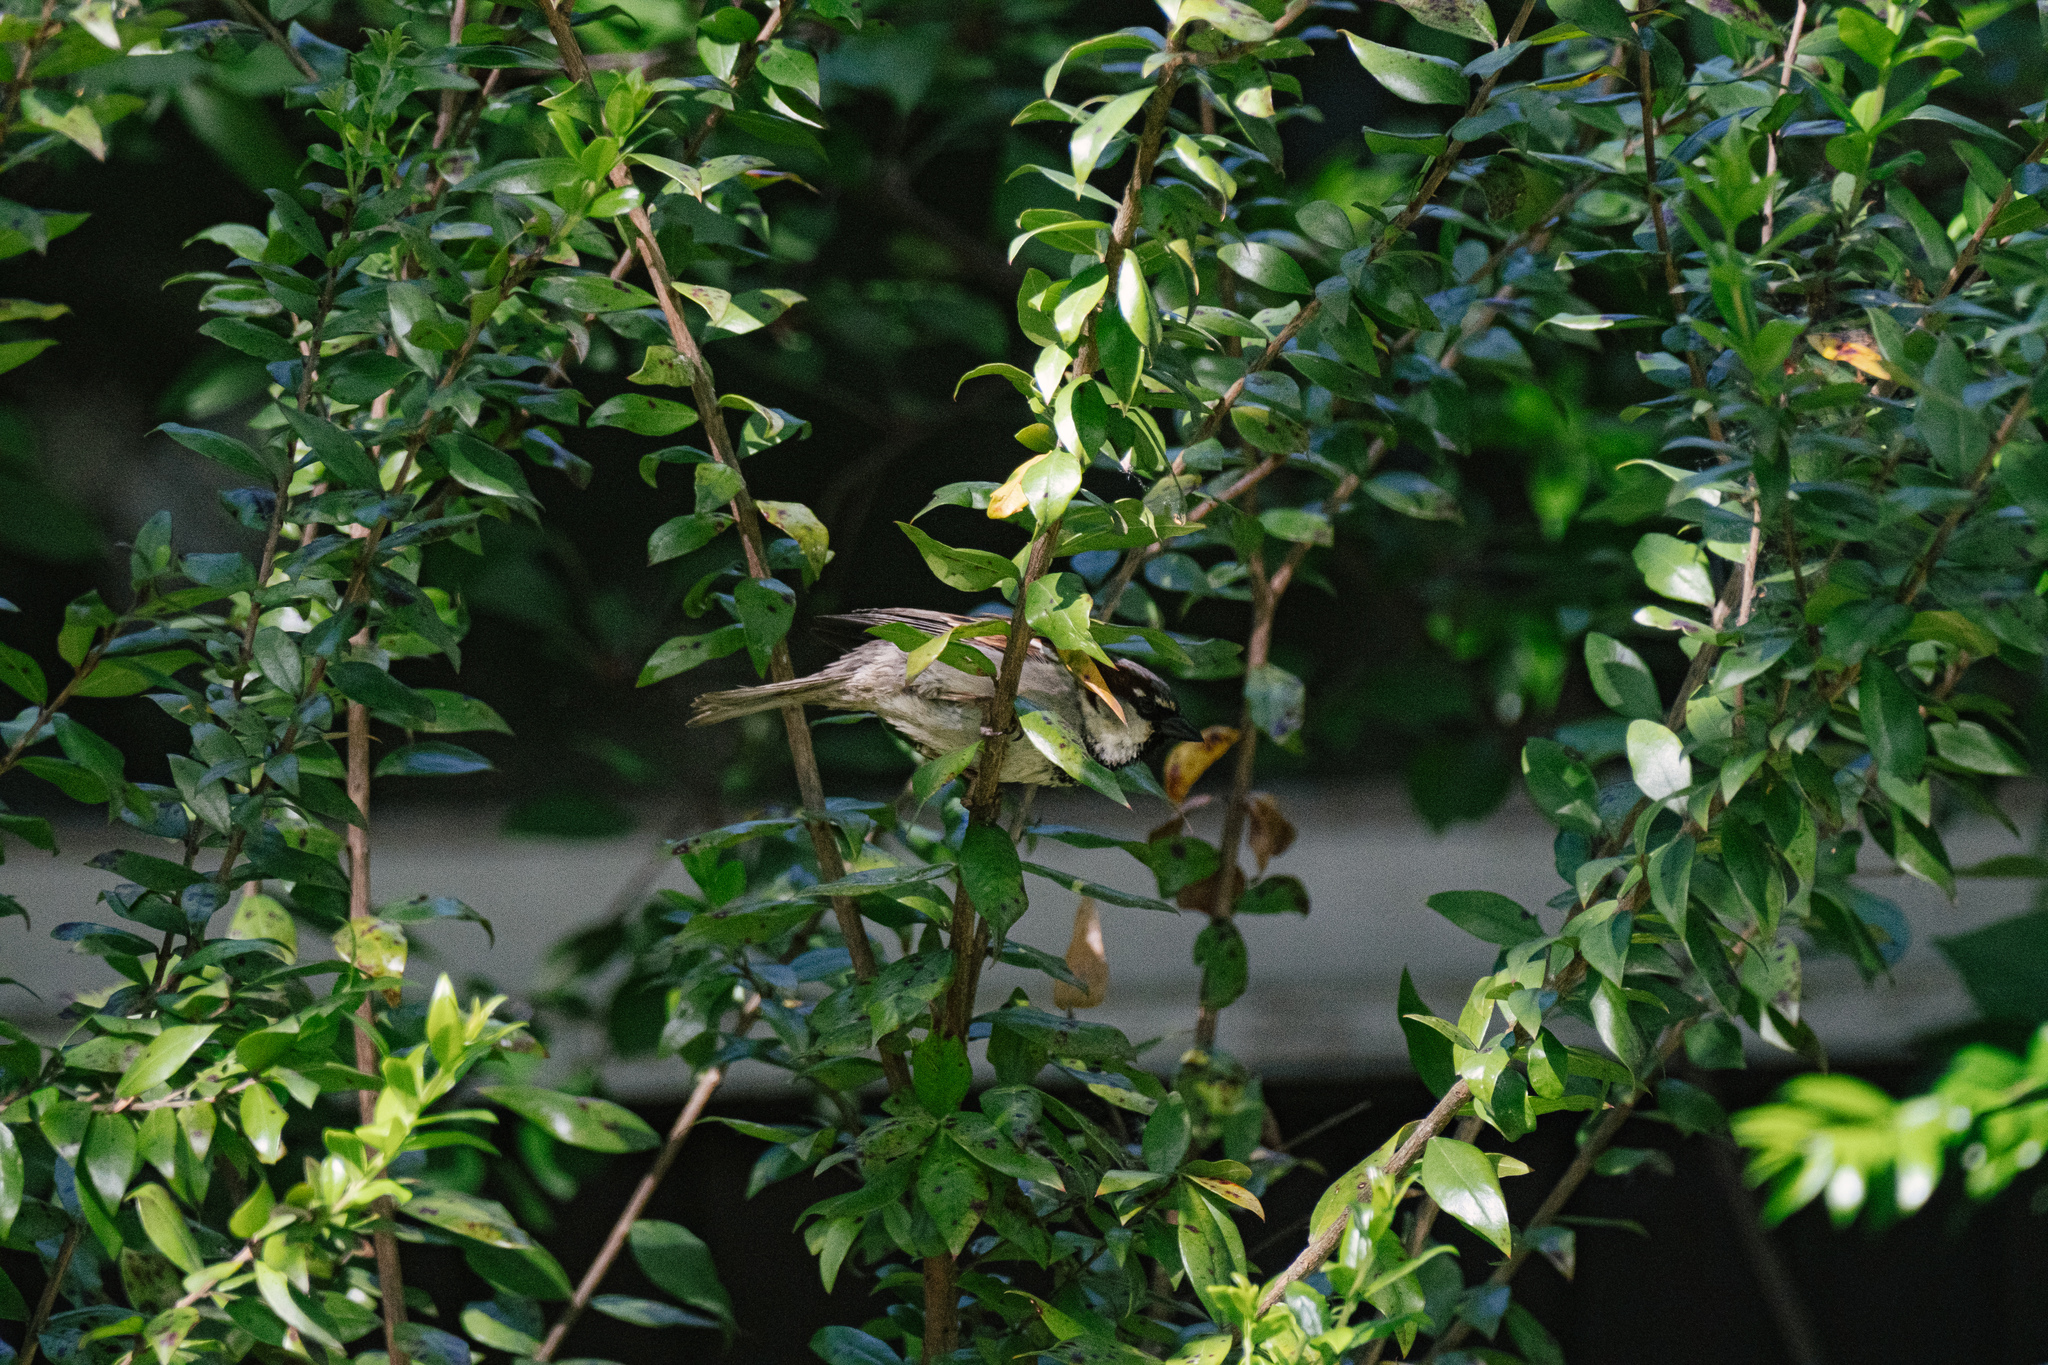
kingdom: Animalia
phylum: Chordata
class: Aves
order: Passeriformes
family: Passeridae
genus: Passer
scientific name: Passer domesticus
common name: House sparrow
